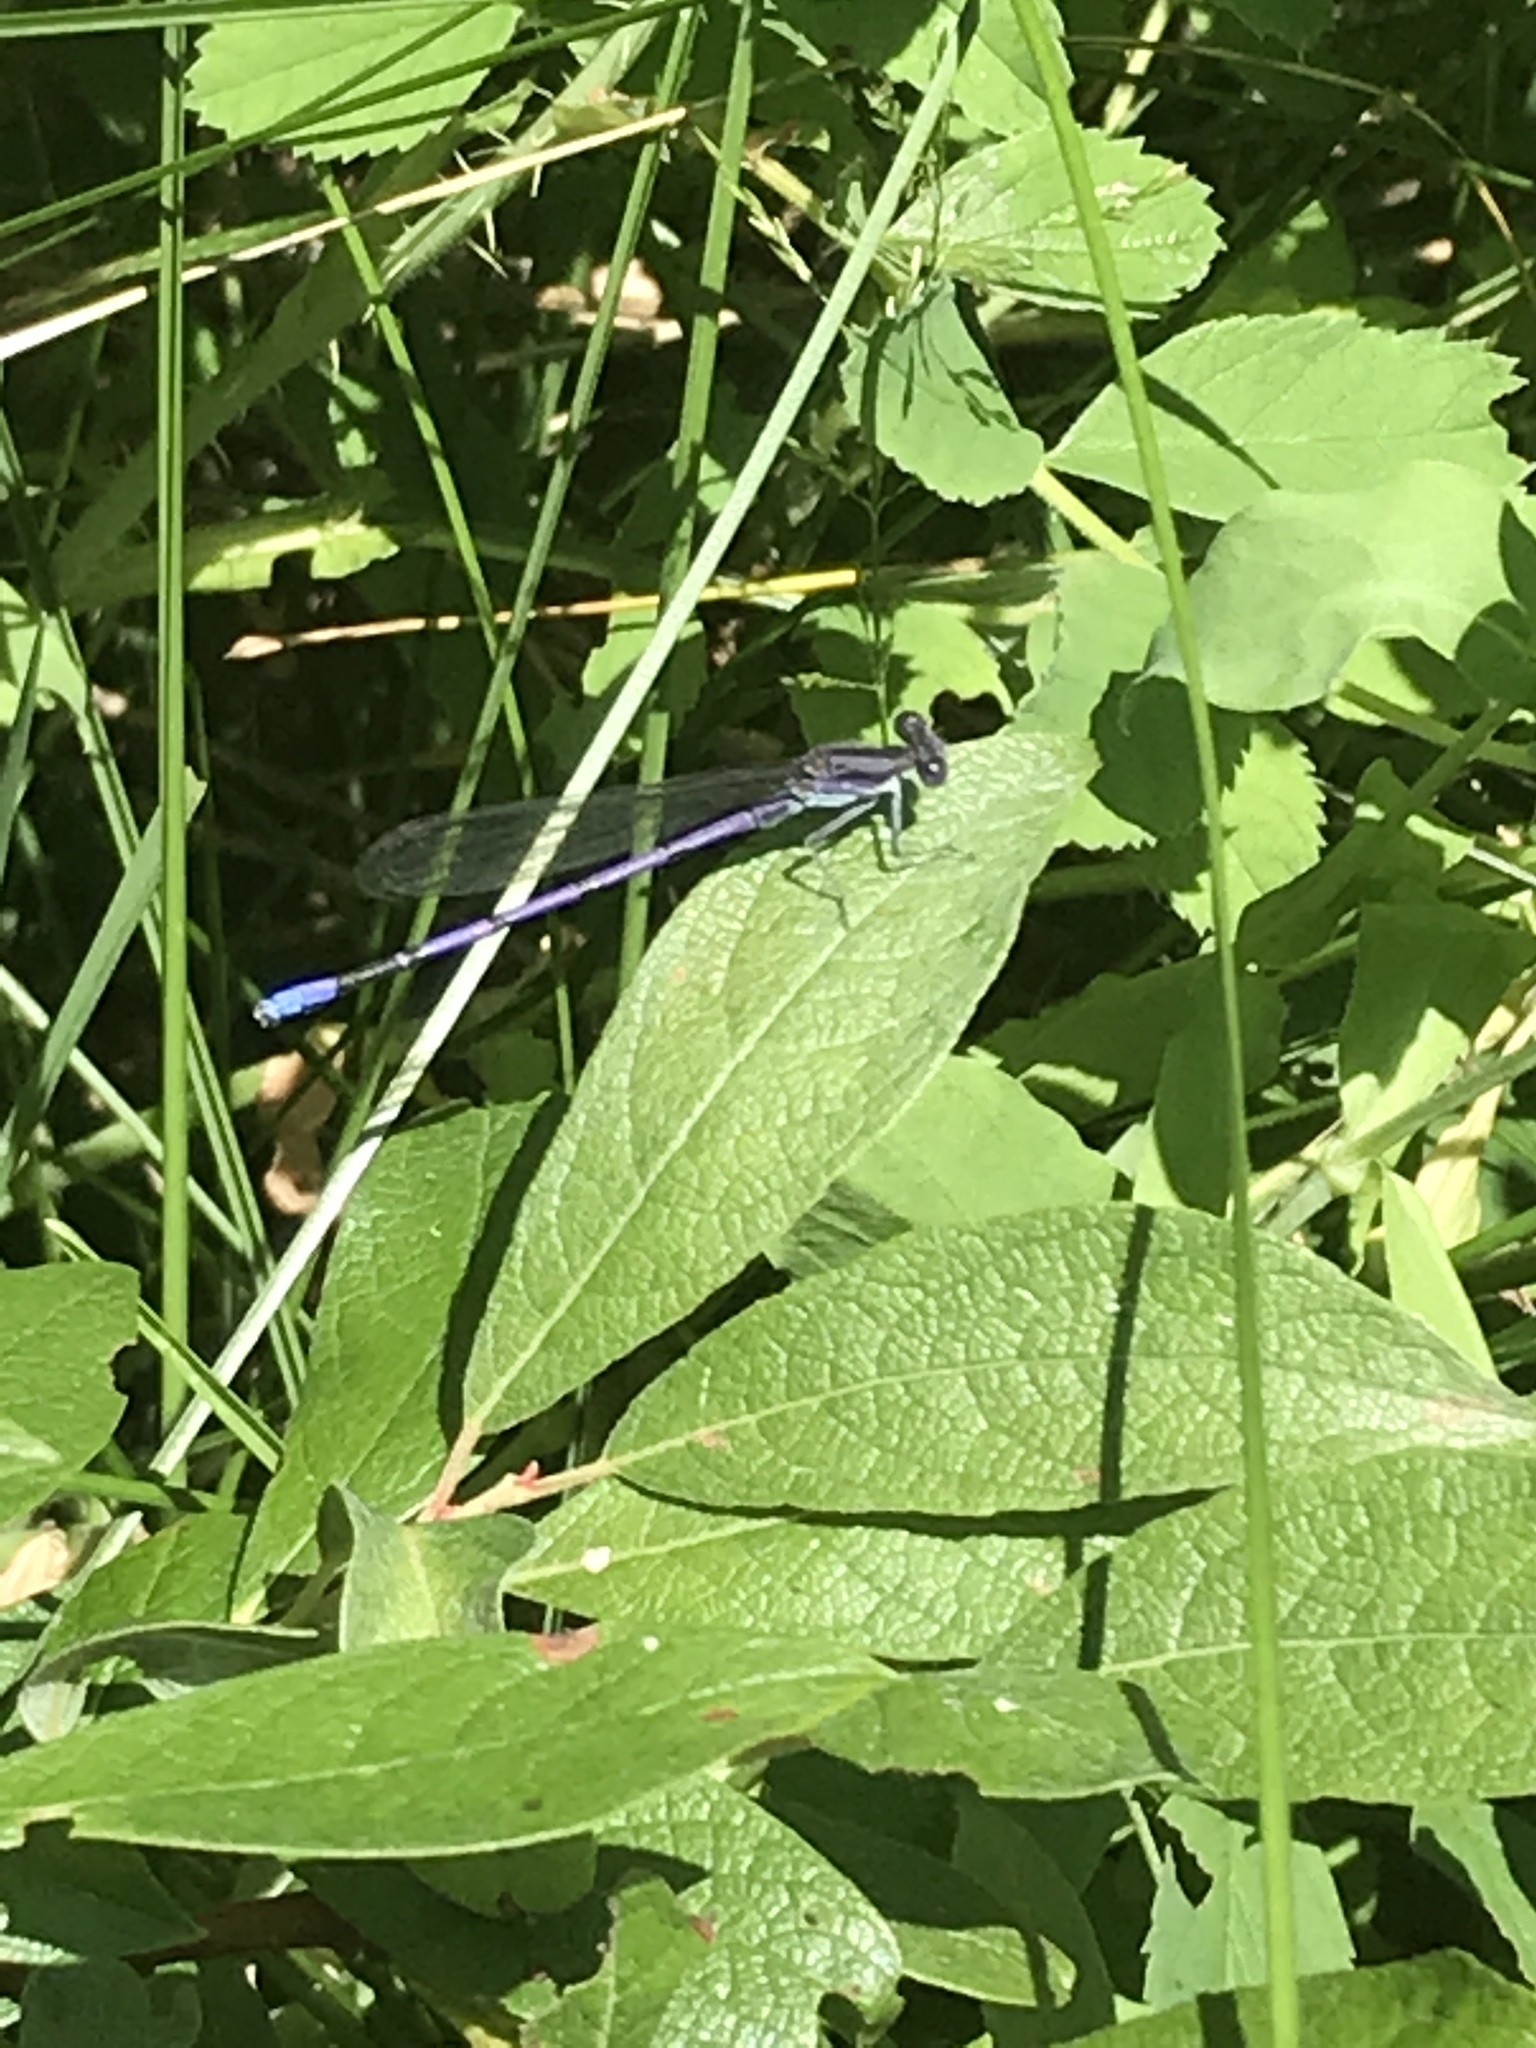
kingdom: Animalia
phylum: Arthropoda
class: Insecta
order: Odonata
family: Coenagrionidae
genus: Argia
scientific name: Argia fumipennis
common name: Variable dancer
